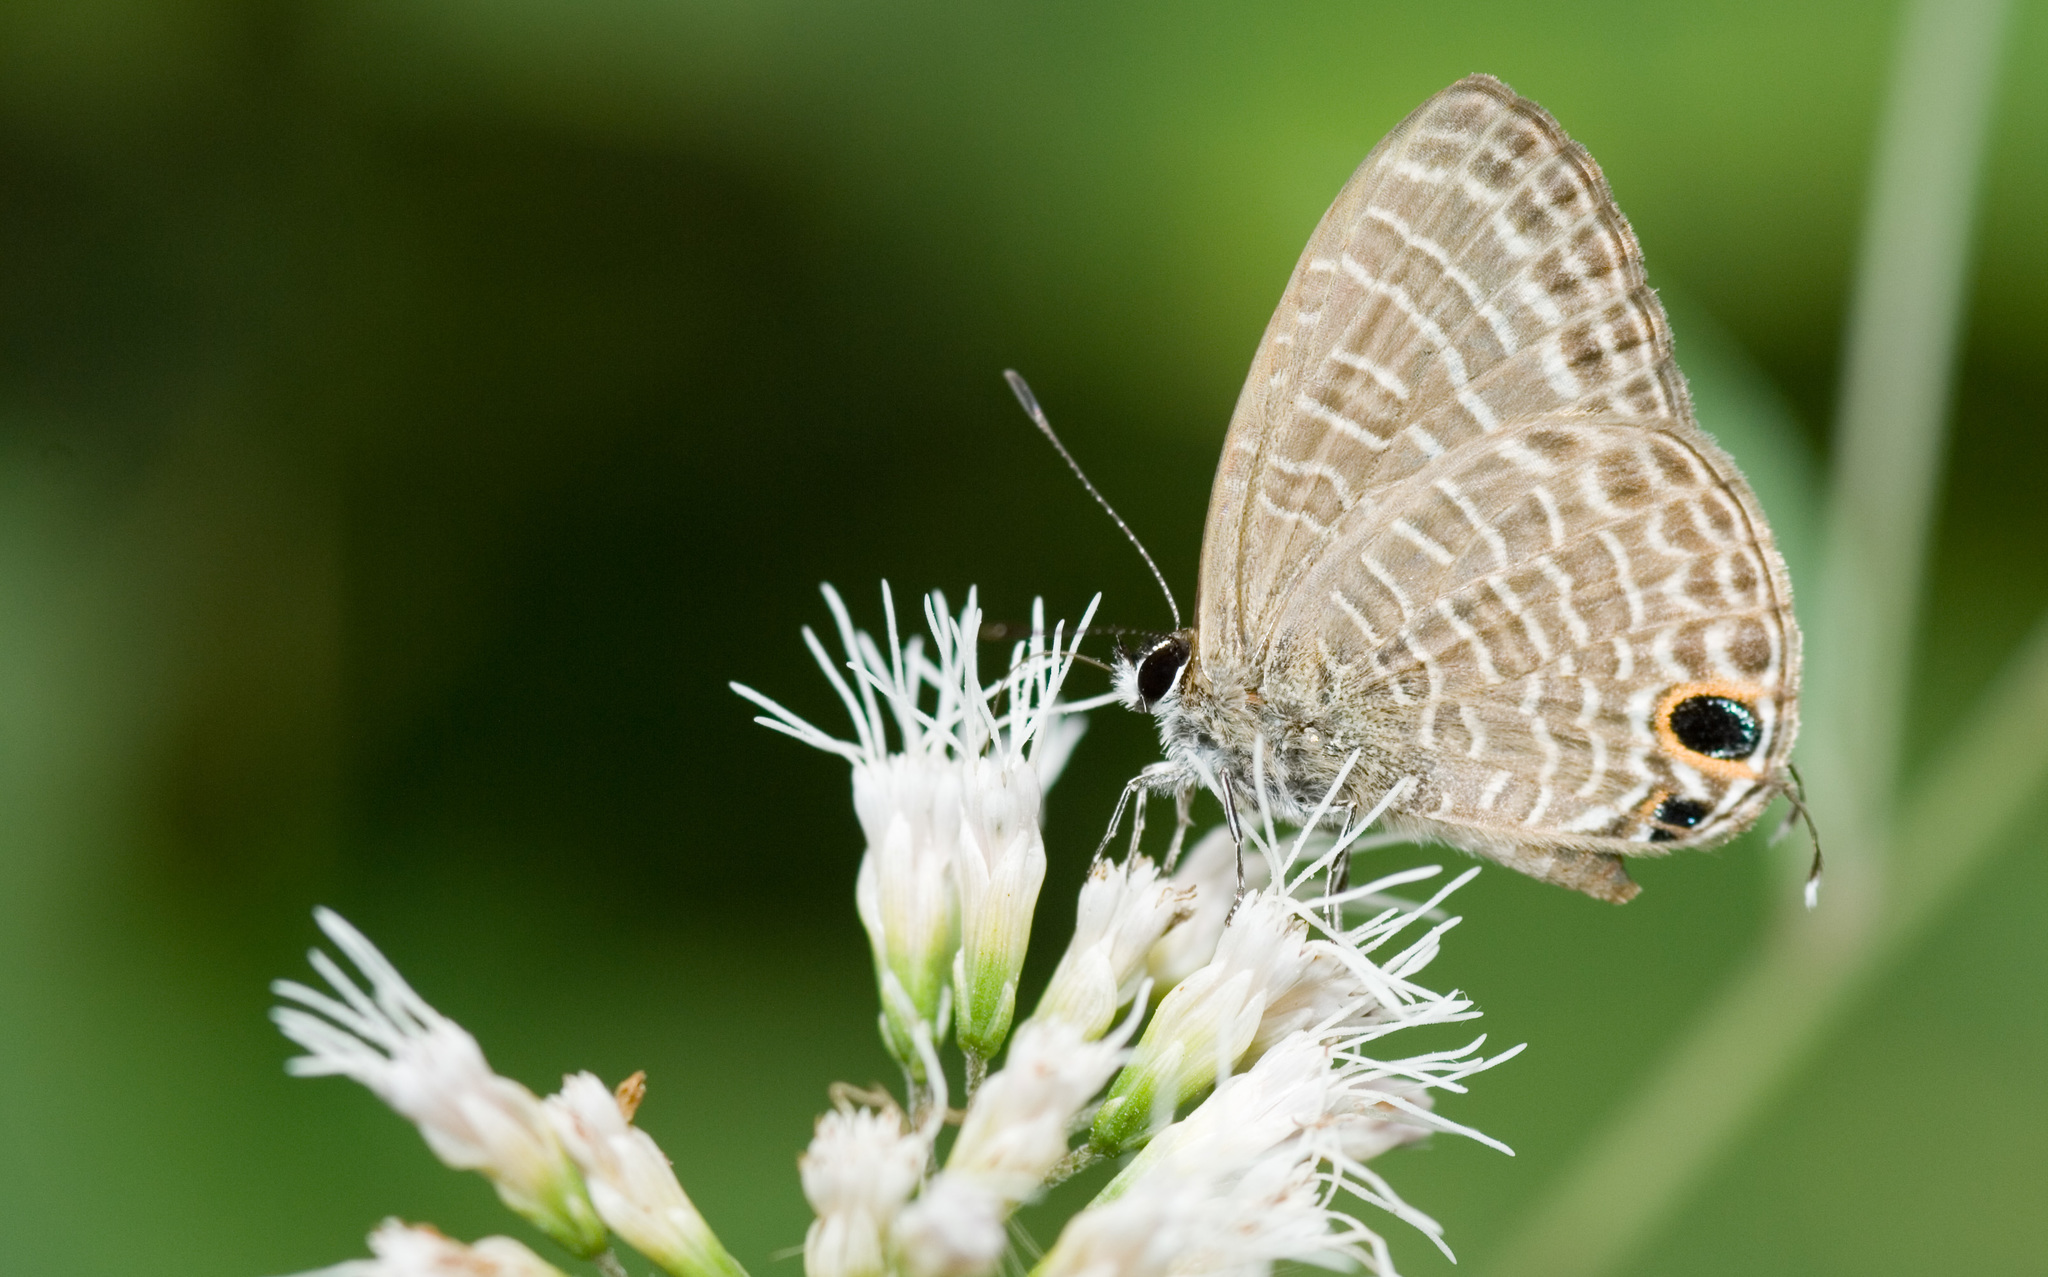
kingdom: Animalia
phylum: Arthropoda
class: Insecta
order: Lepidoptera
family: Lycaenidae
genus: Nacaduba
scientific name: Nacaduba kurava
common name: Transparent 6-line blue
